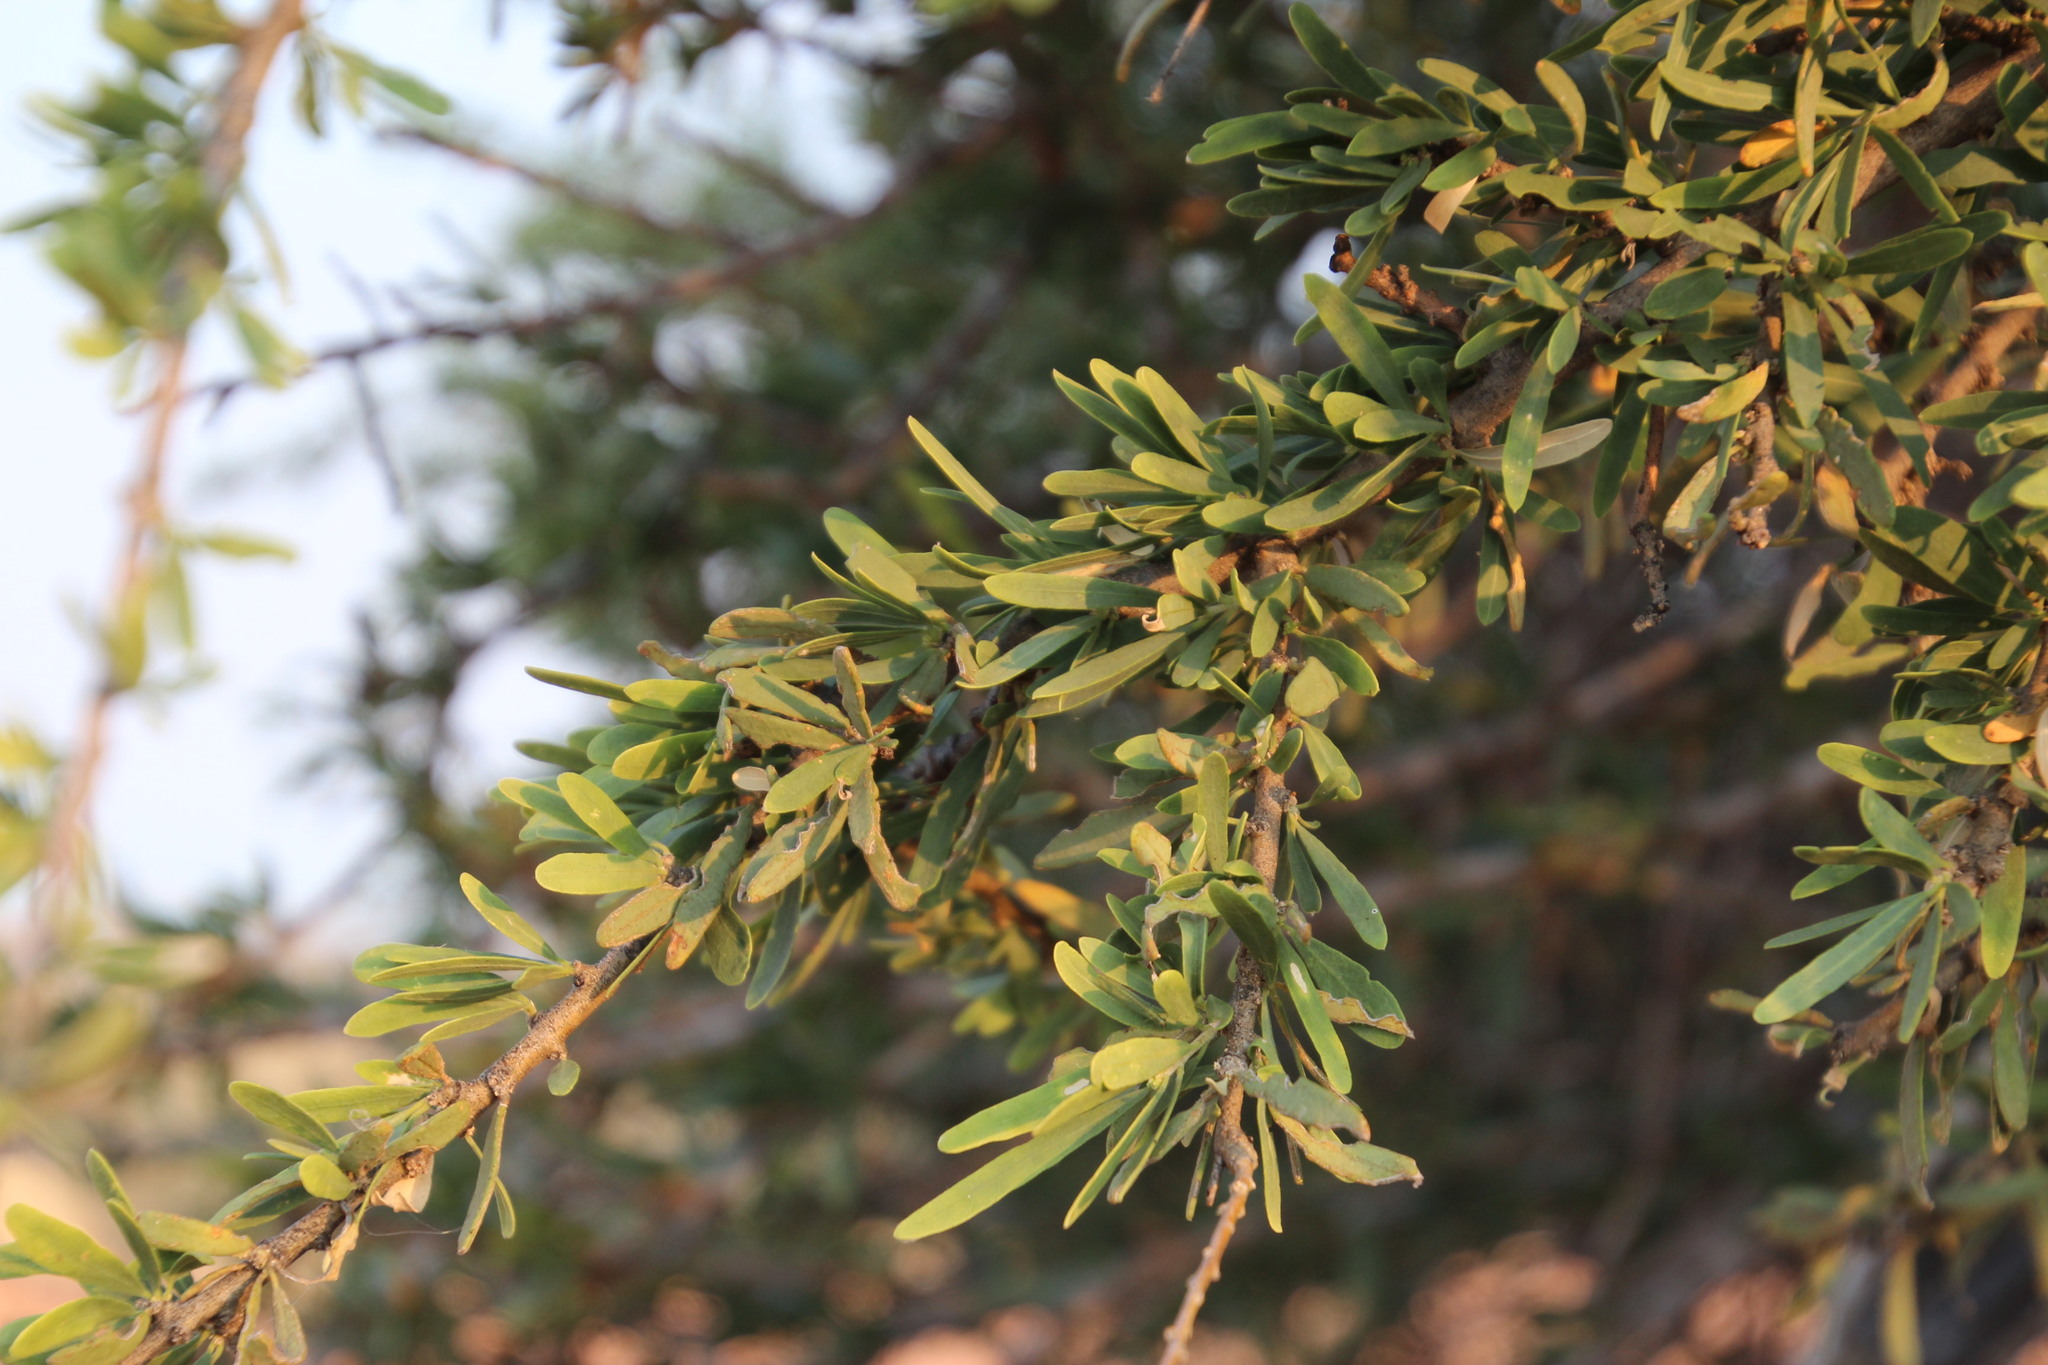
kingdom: Plantae
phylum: Tracheophyta
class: Magnoliopsida
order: Brassicales
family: Capparaceae
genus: Boscia
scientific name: Boscia albitrunca
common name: Caper bush
